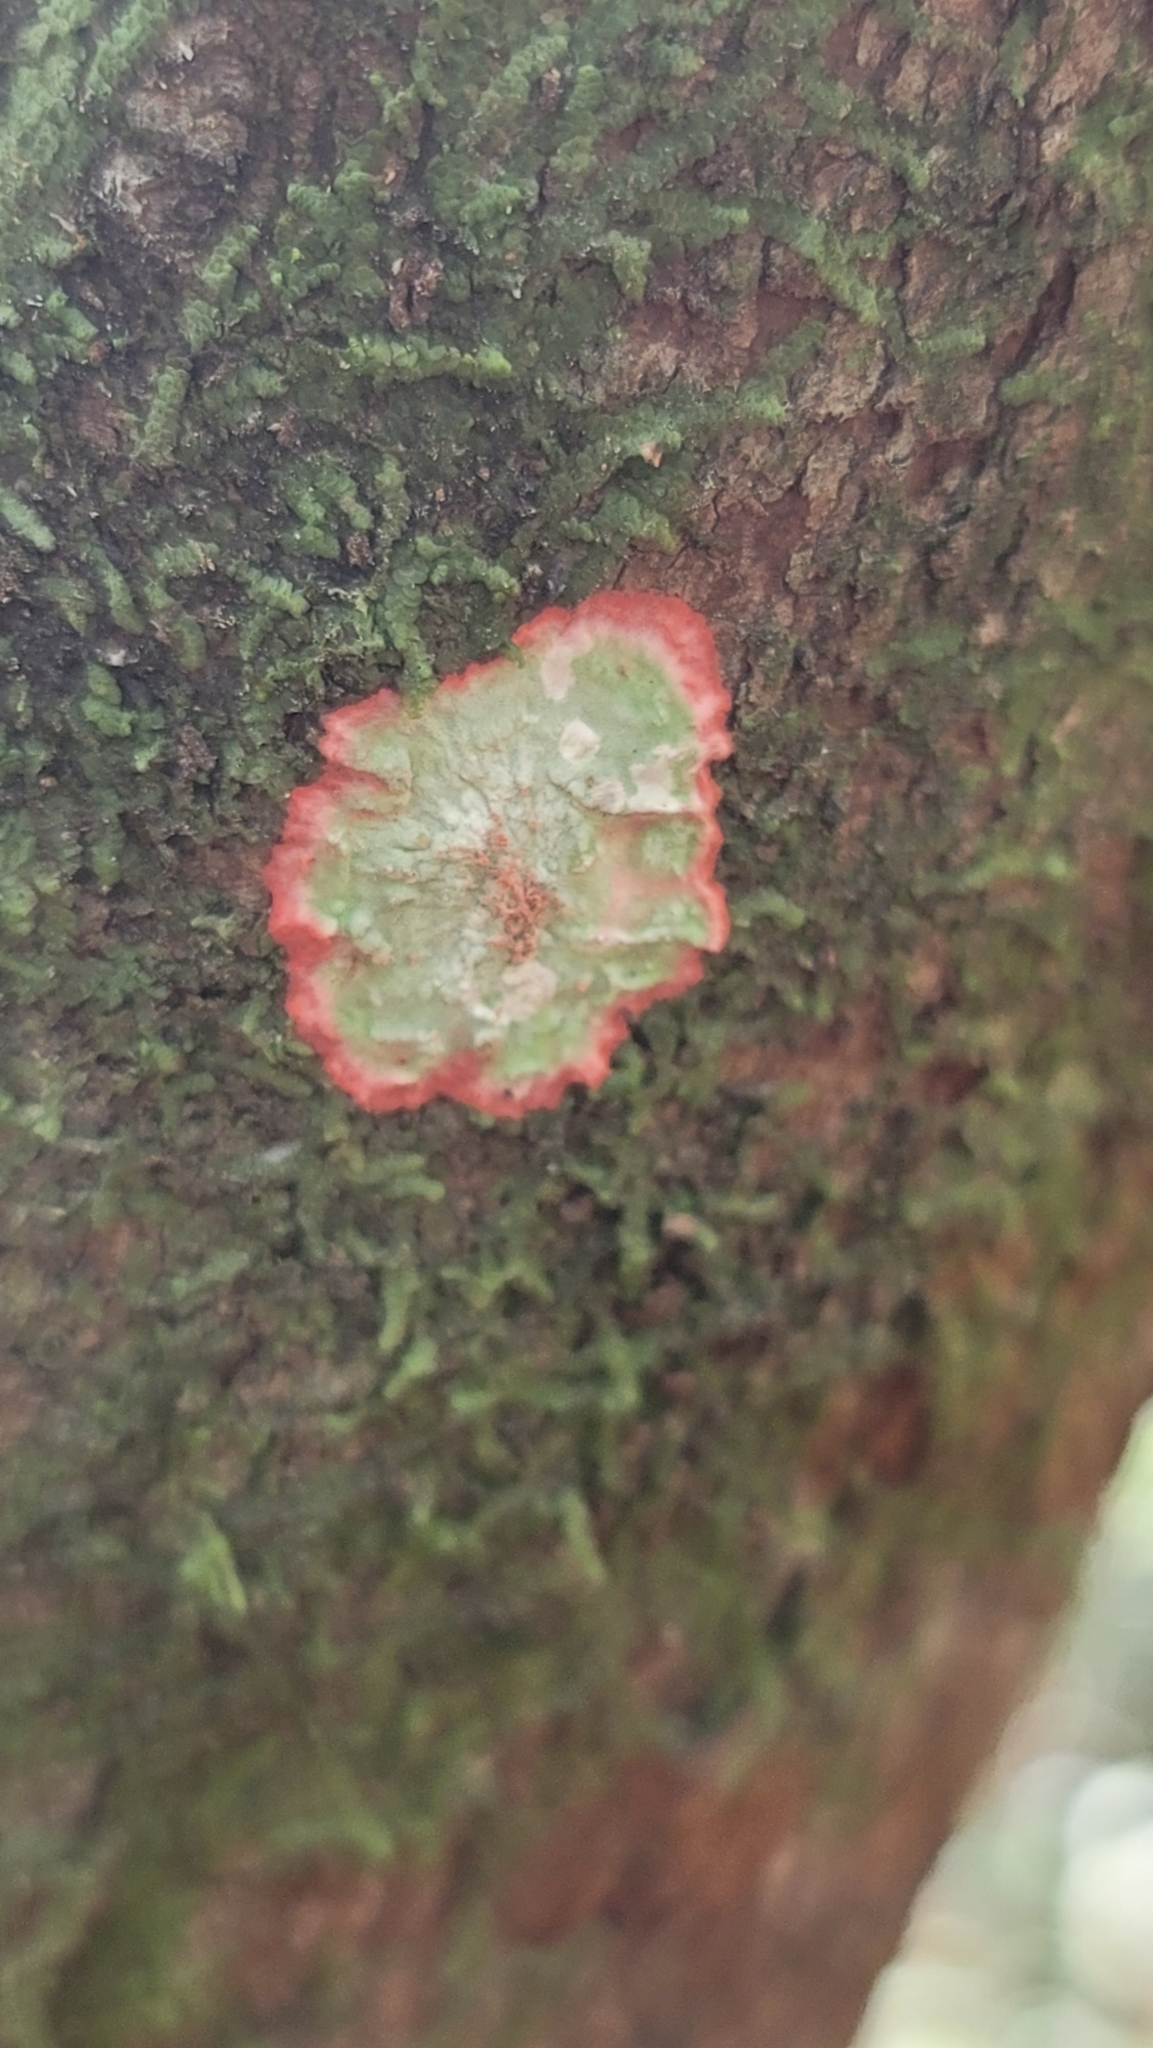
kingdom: Fungi
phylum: Ascomycota
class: Arthoniomycetes
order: Arthoniales
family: Arthoniaceae
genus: Herpothallon
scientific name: Herpothallon rubrocinctum
